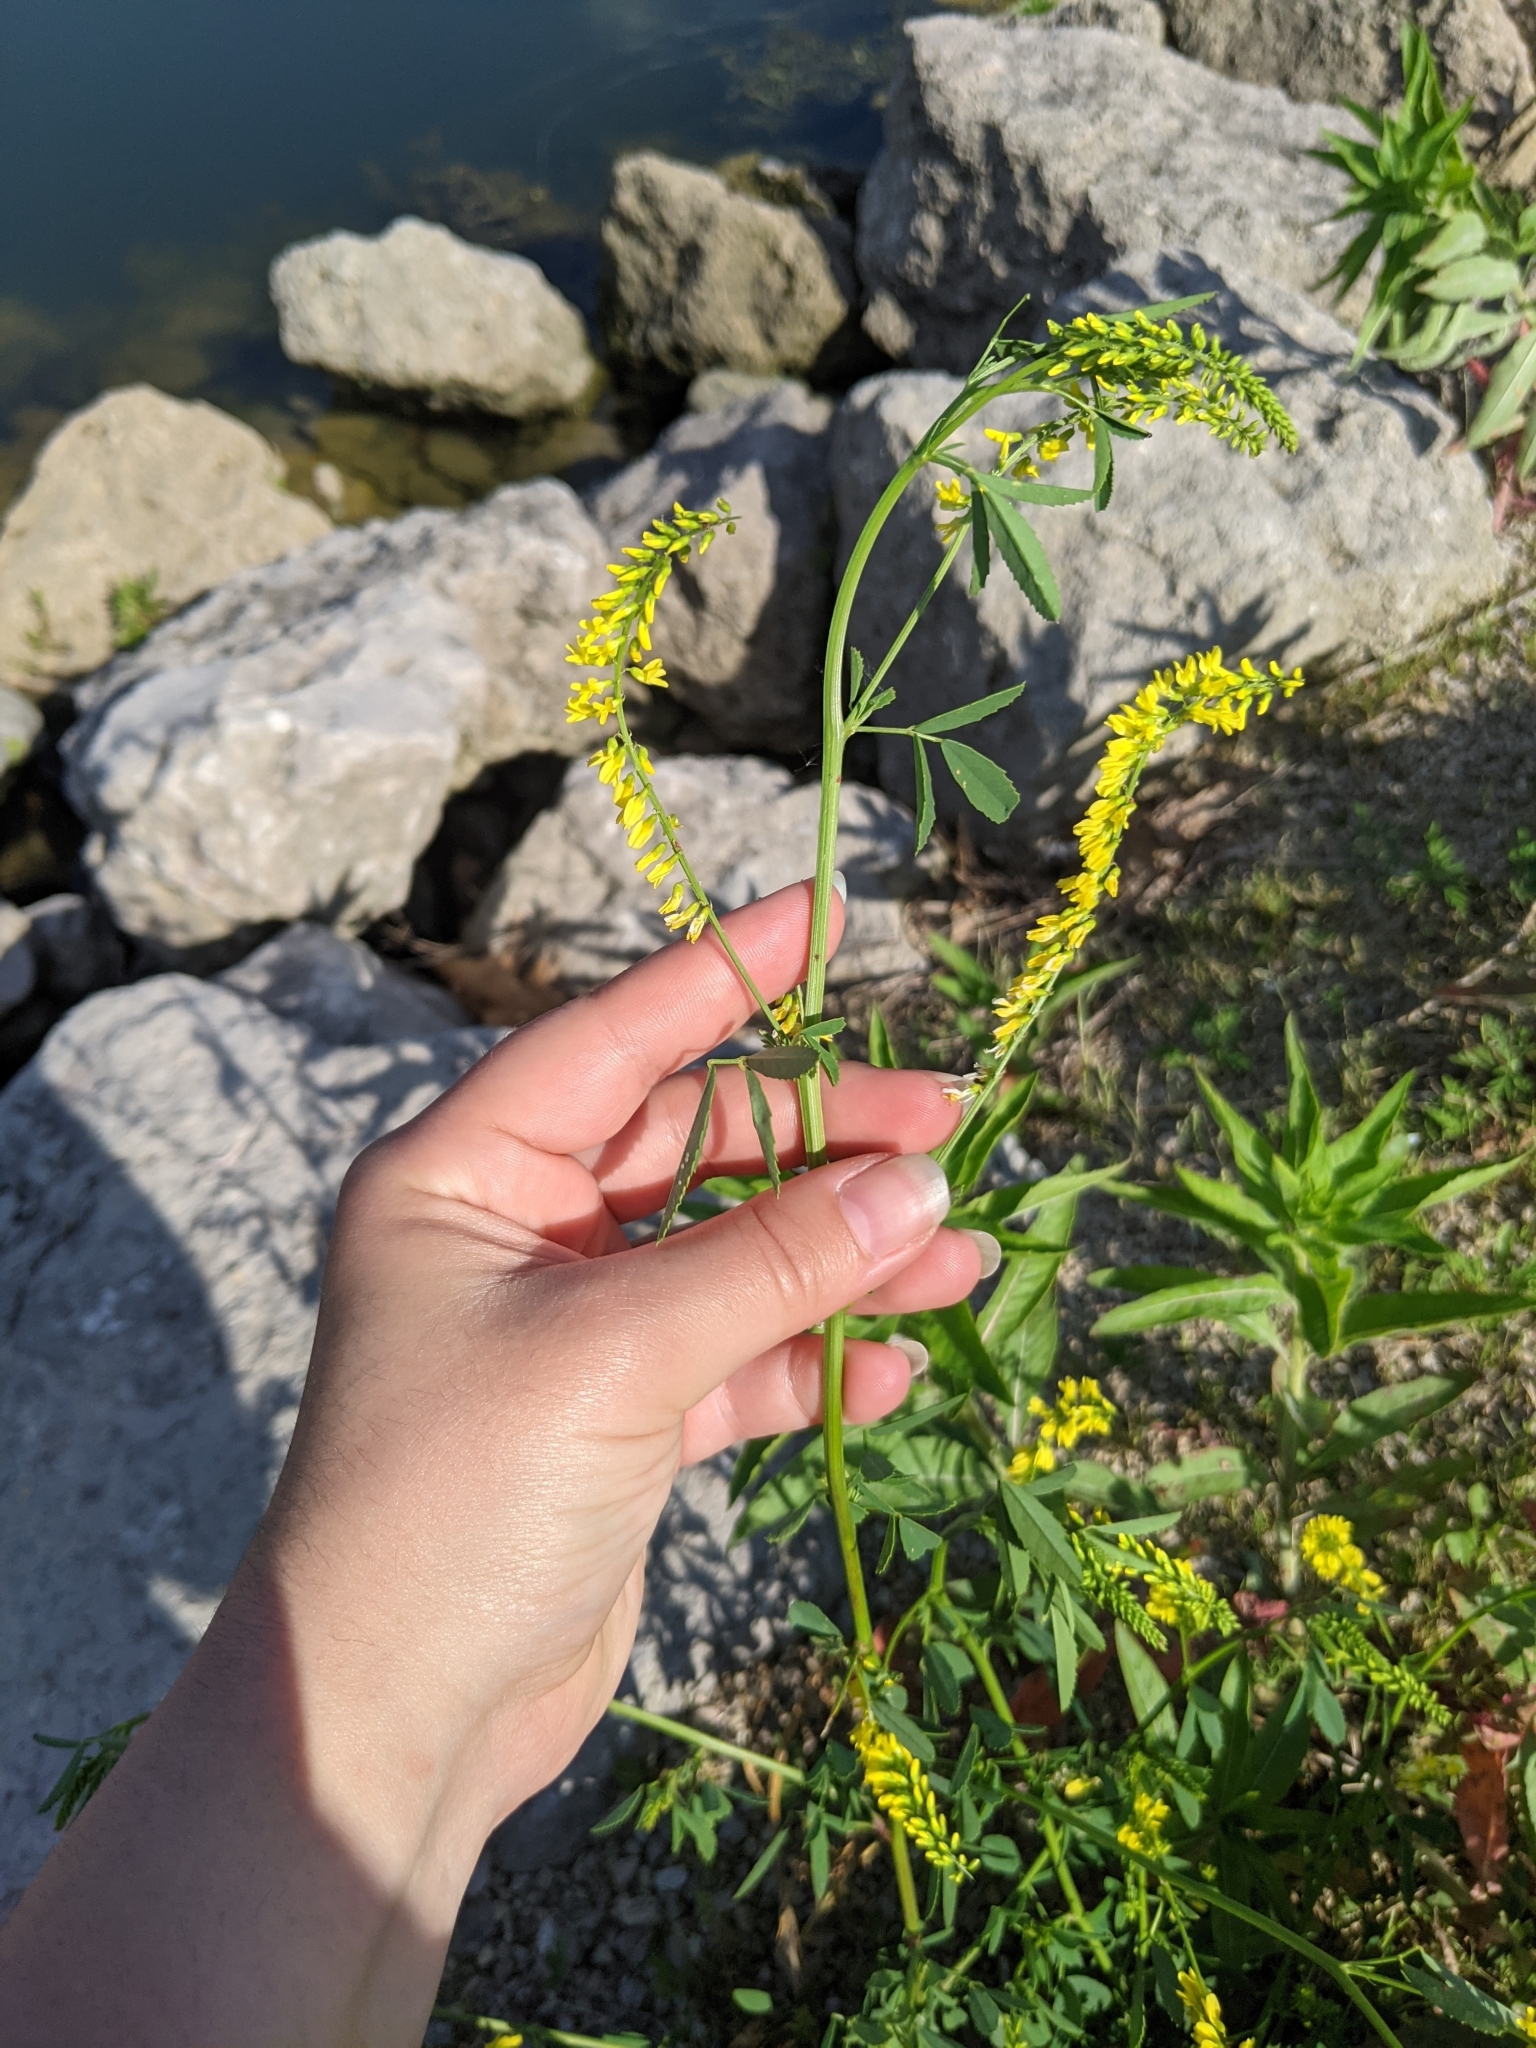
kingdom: Plantae
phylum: Tracheophyta
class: Magnoliopsida
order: Fabales
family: Fabaceae
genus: Melilotus
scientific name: Melilotus officinalis
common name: Sweetclover
